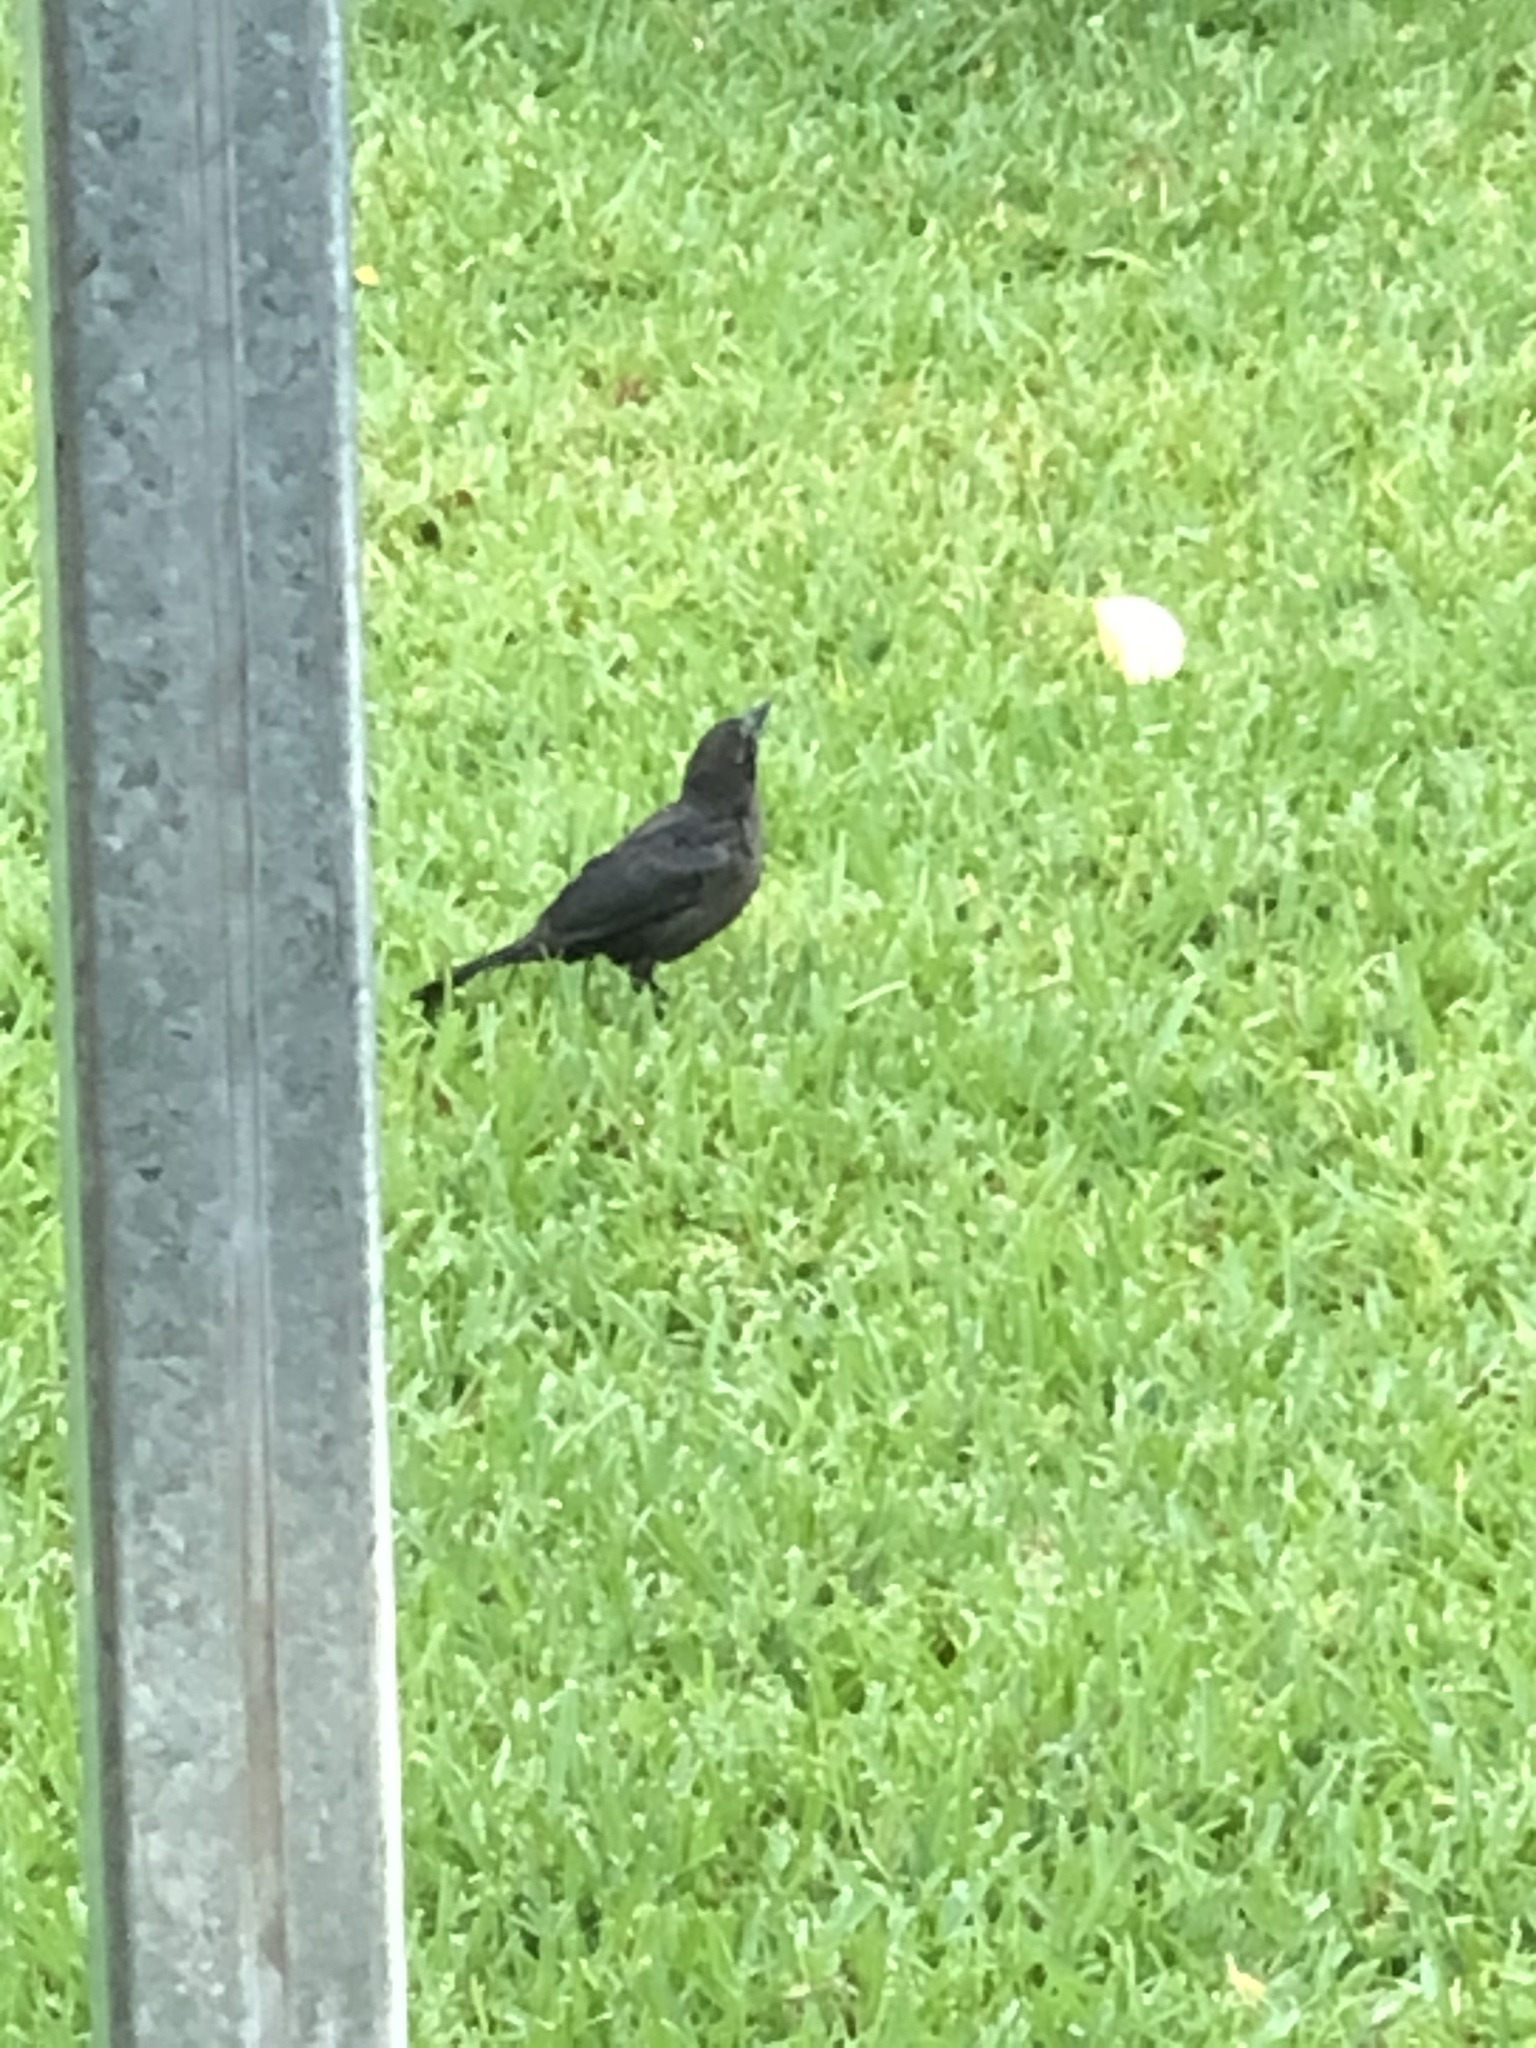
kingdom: Animalia
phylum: Chordata
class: Aves
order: Passeriformes
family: Icteridae
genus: Quiscalus
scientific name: Quiscalus quiscula
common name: Common grackle
